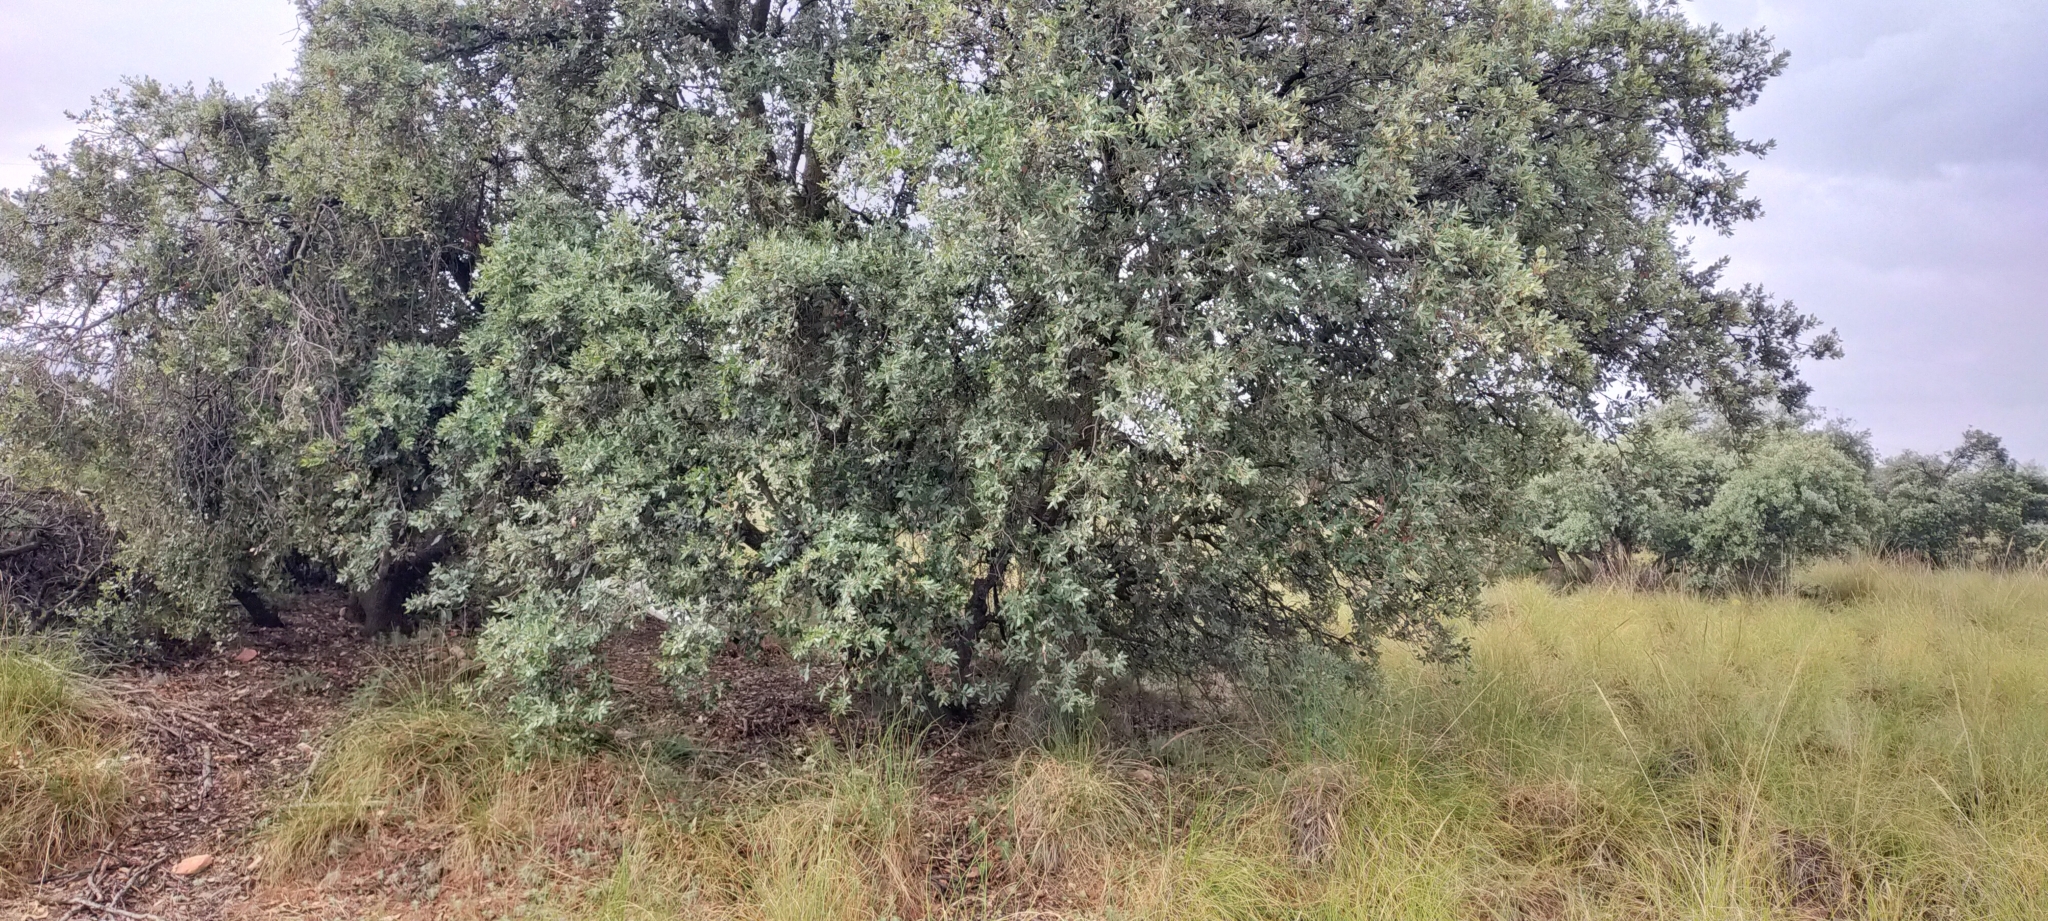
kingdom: Plantae
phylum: Tracheophyta
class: Magnoliopsida
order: Fagales
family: Fagaceae
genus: Quercus
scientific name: Quercus rotundifolia
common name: Holm oak
